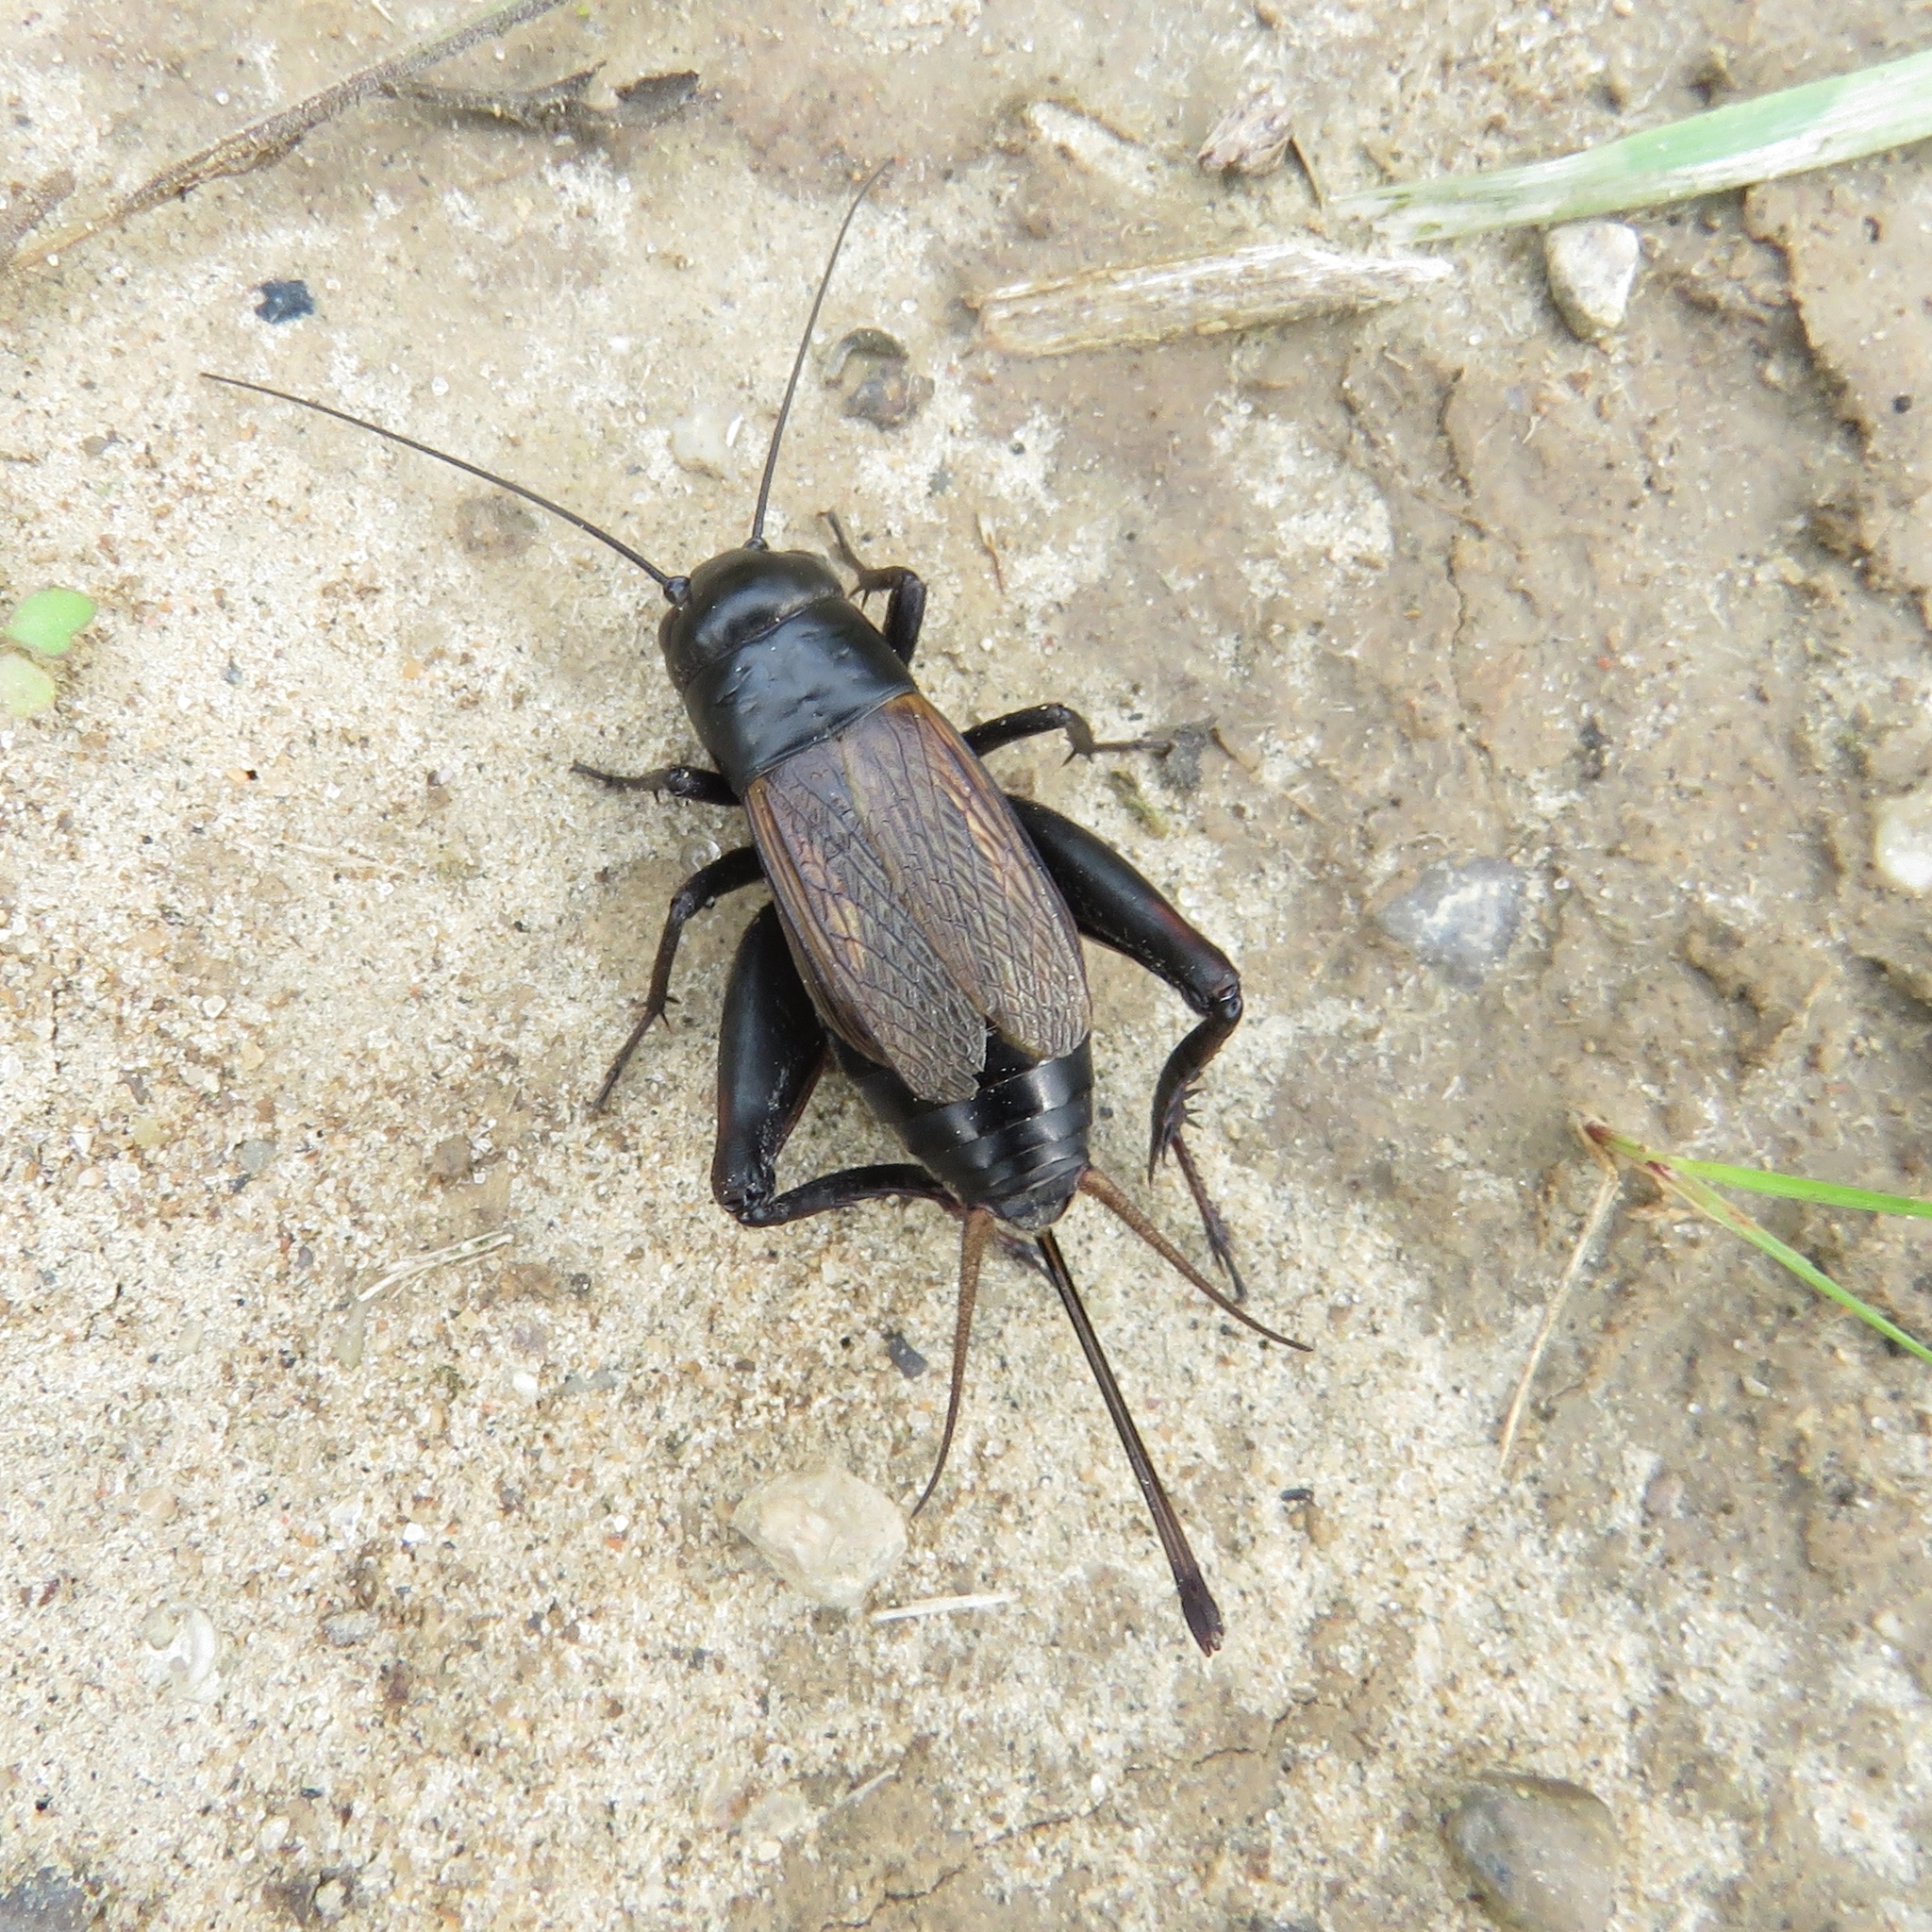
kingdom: Animalia
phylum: Arthropoda
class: Insecta
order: Orthoptera
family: Gryllidae
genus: Gryllus
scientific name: Gryllus pennsylvanicus
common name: Fall field cricket
